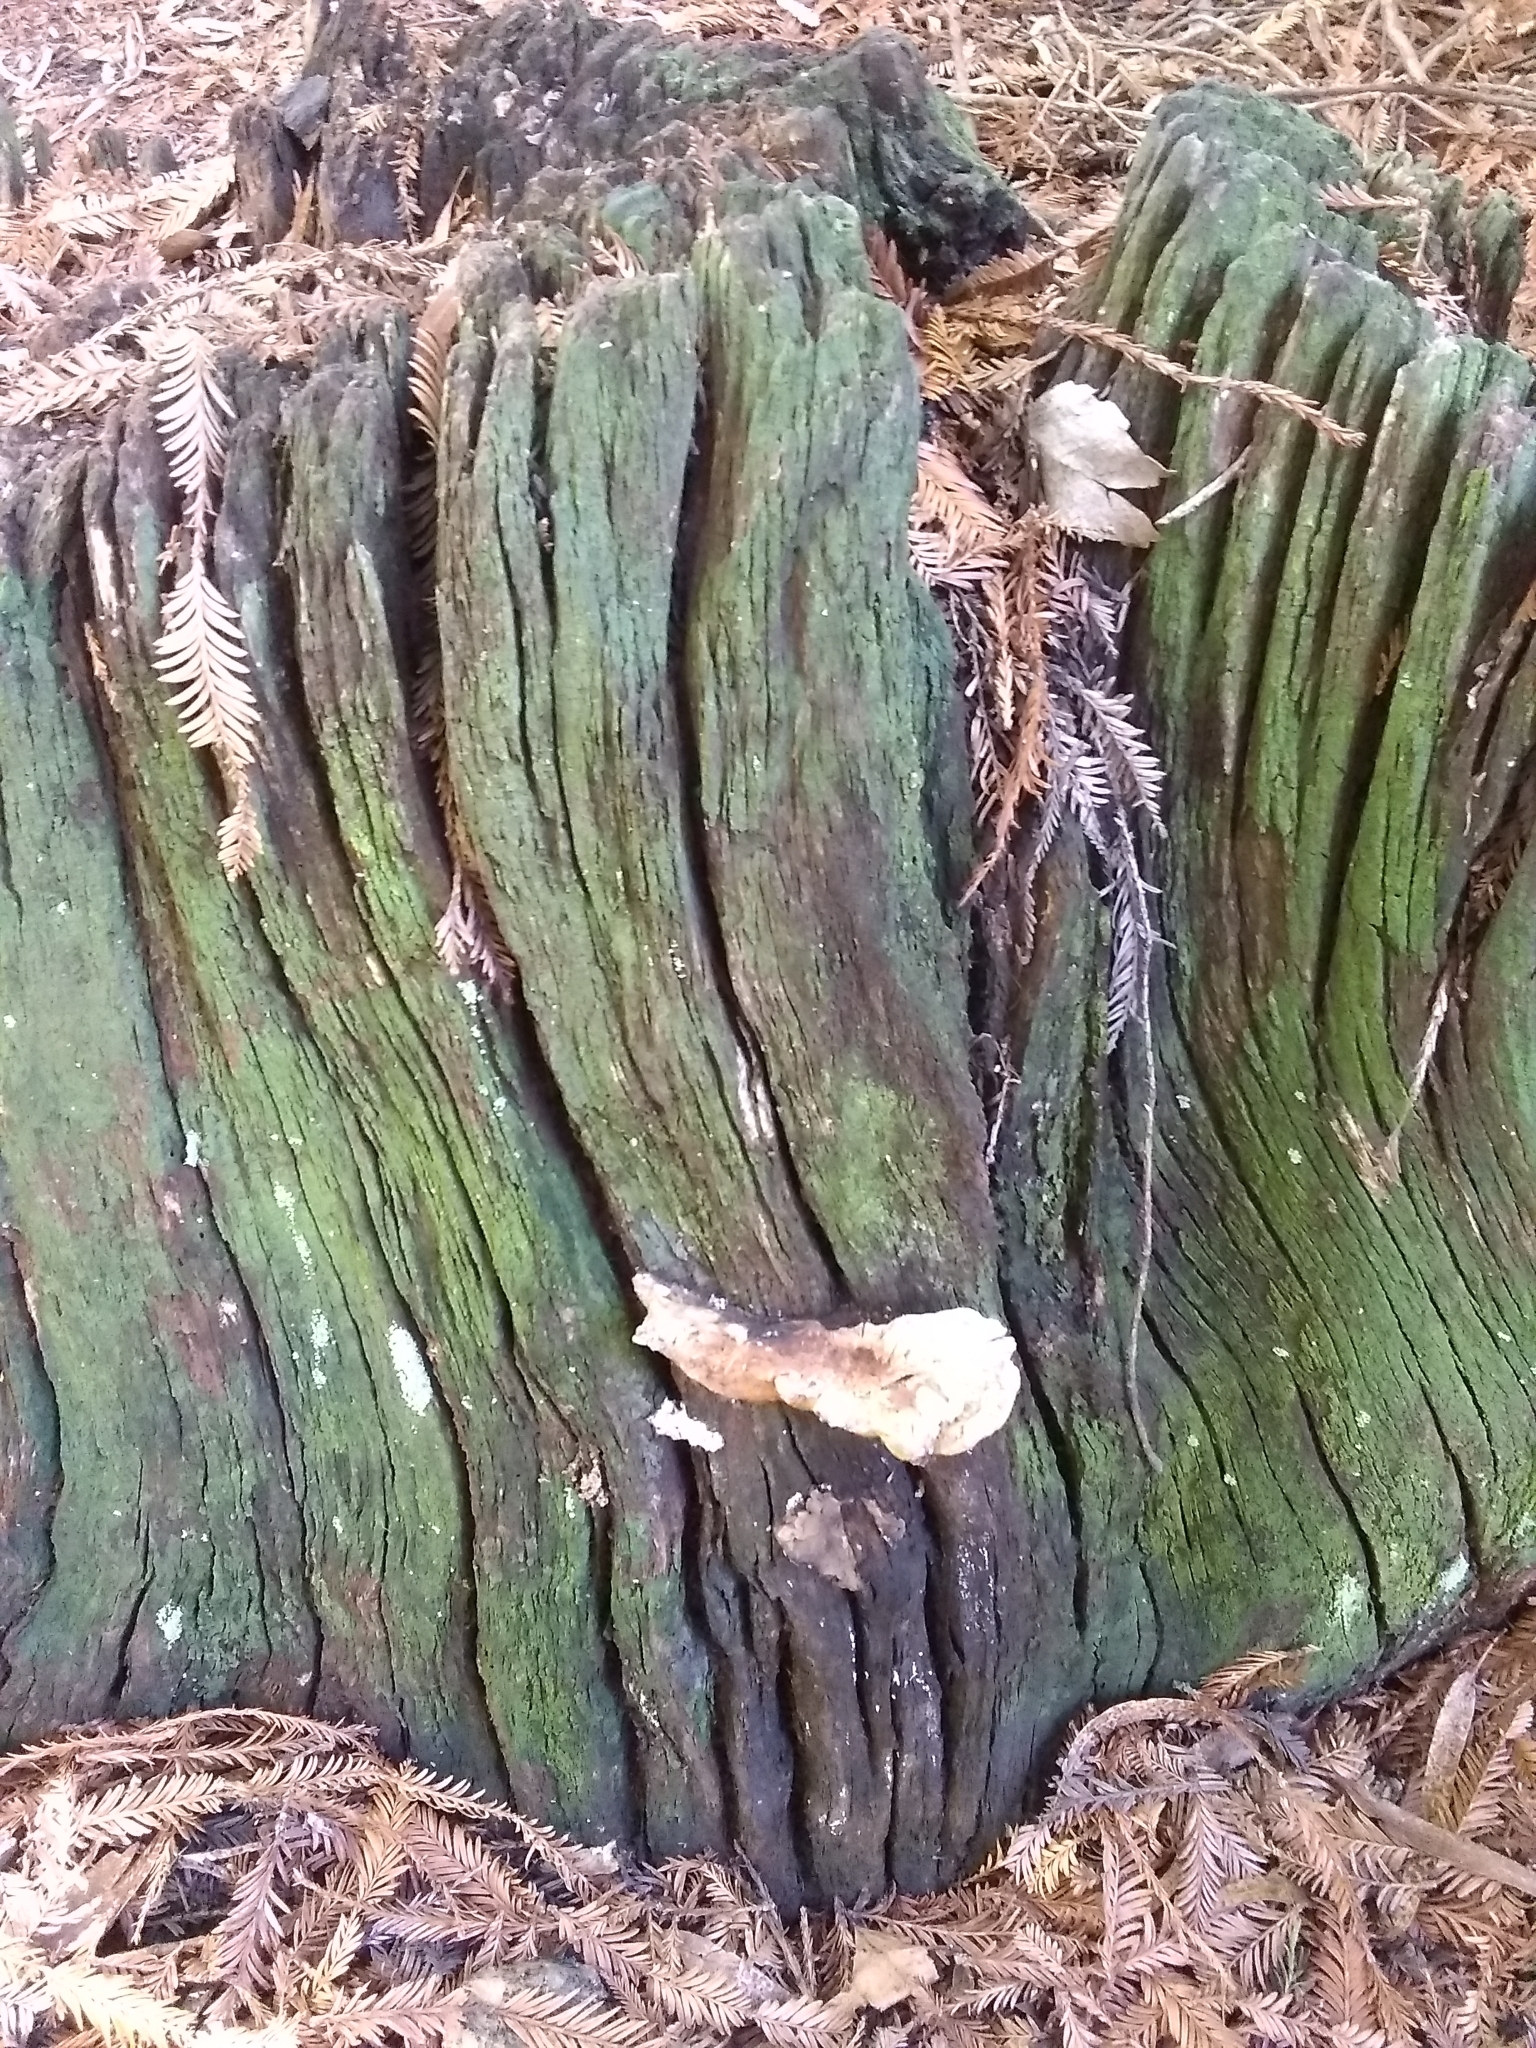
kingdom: Fungi
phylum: Basidiomycota
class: Agaricomycetes
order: Polyporales
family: Laetiporaceae
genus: Laetiporus
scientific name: Laetiporus gilbertsonii
